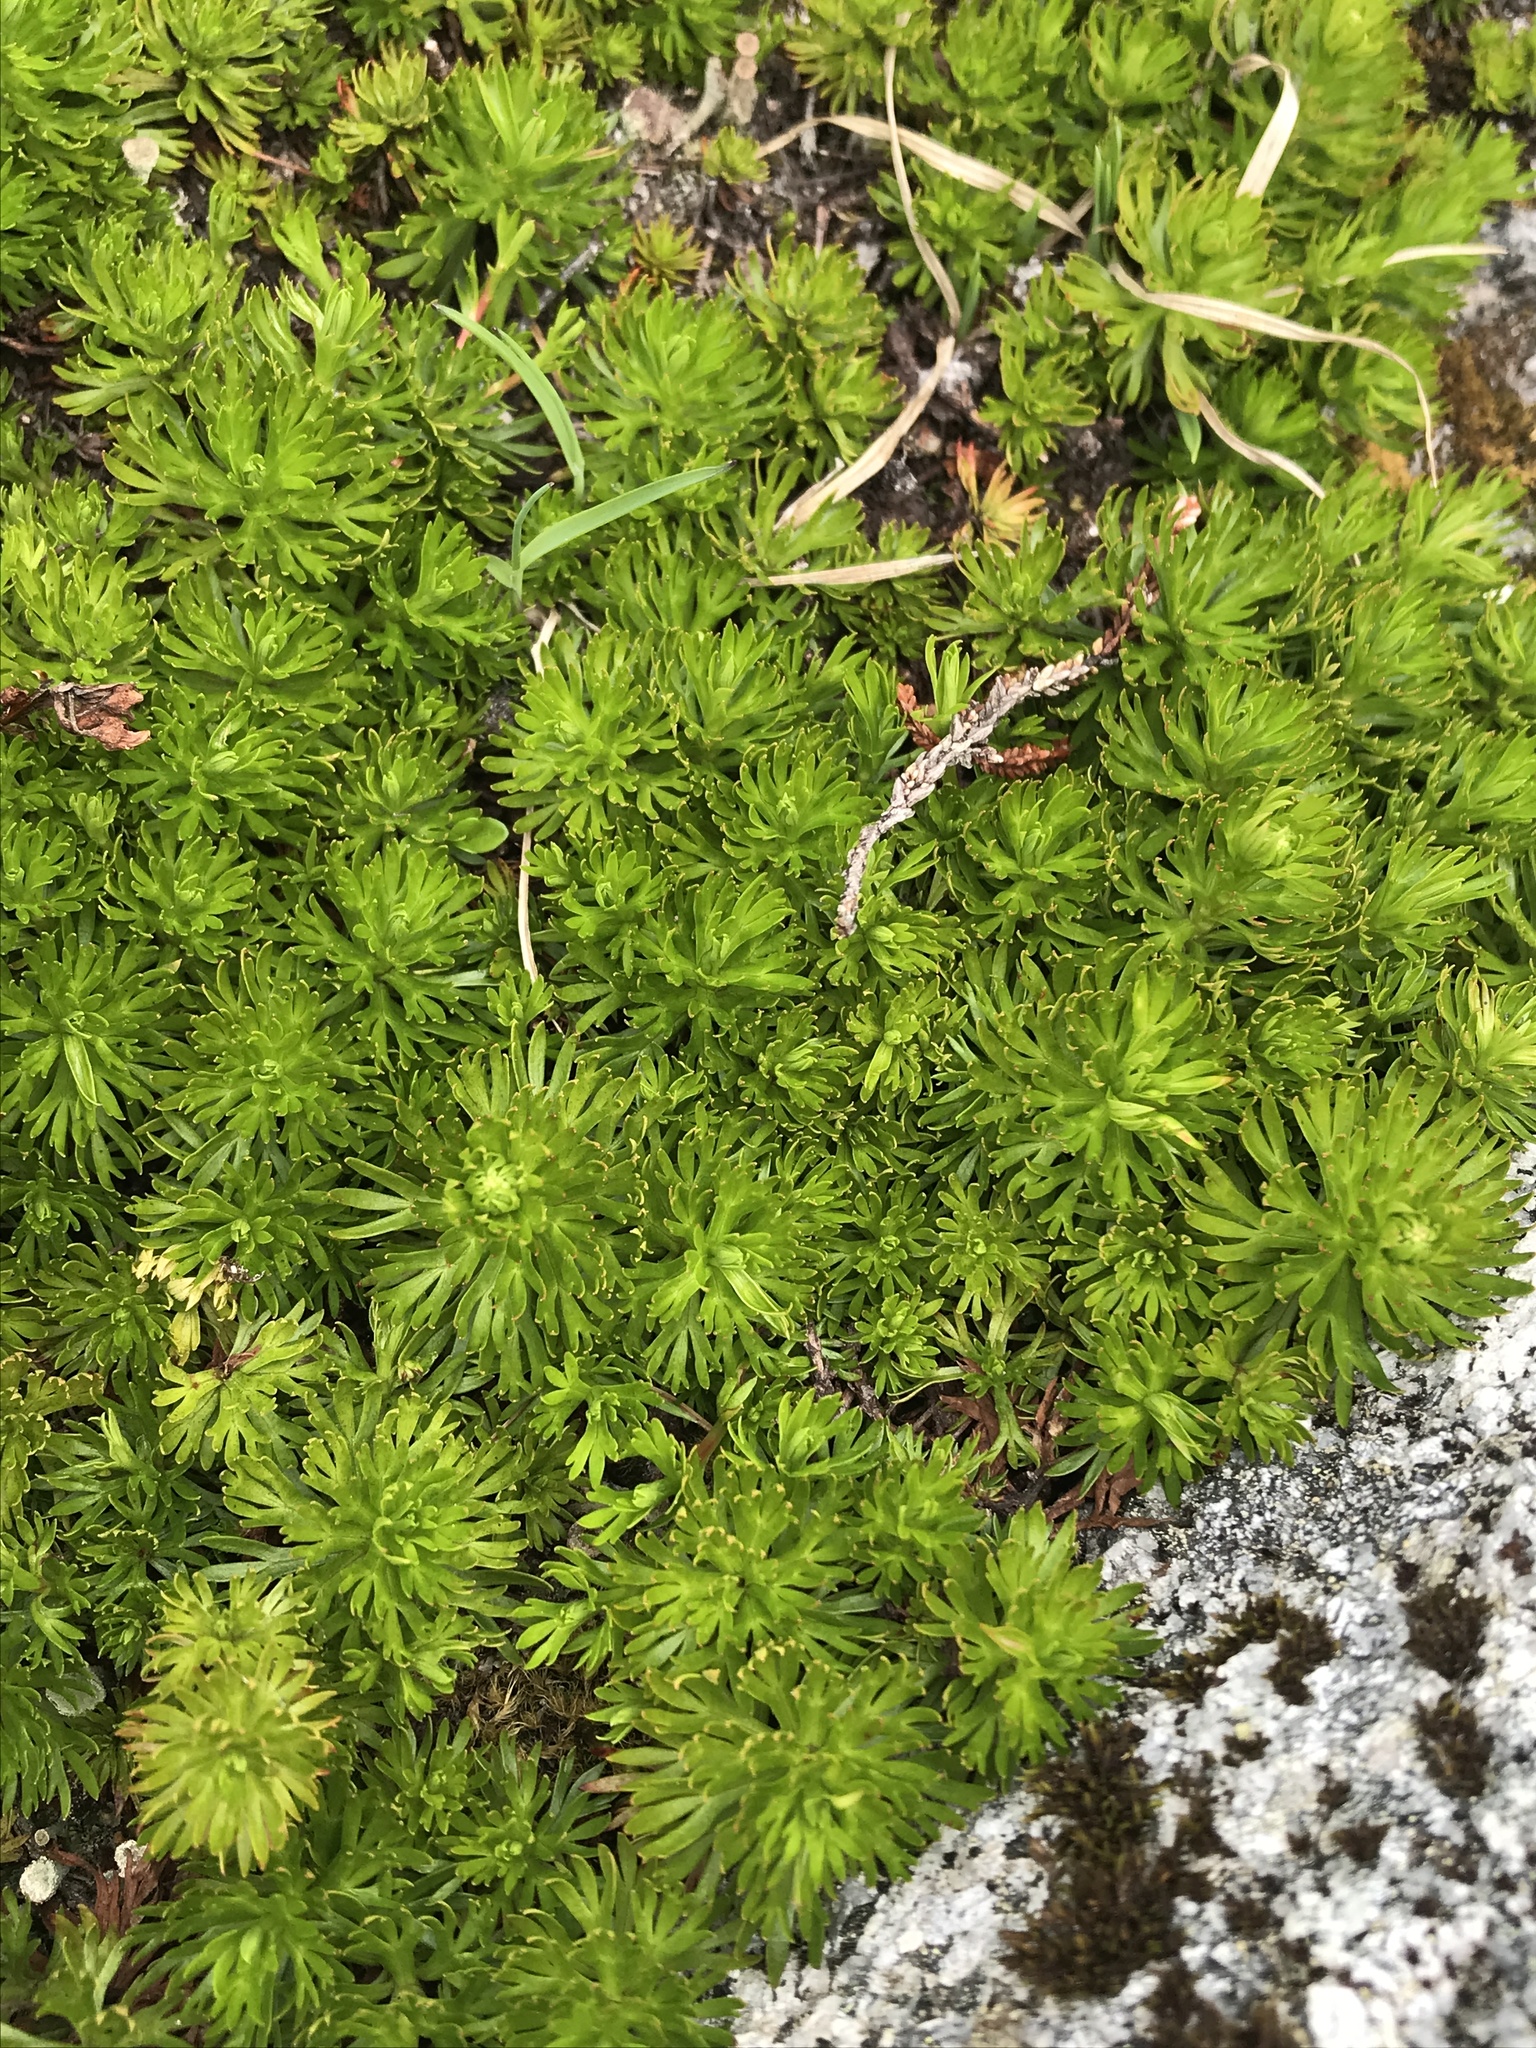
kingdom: Plantae
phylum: Tracheophyta
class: Magnoliopsida
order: Rosales
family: Rosaceae
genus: Luetkea
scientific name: Luetkea pectinata
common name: Partridgefoot
